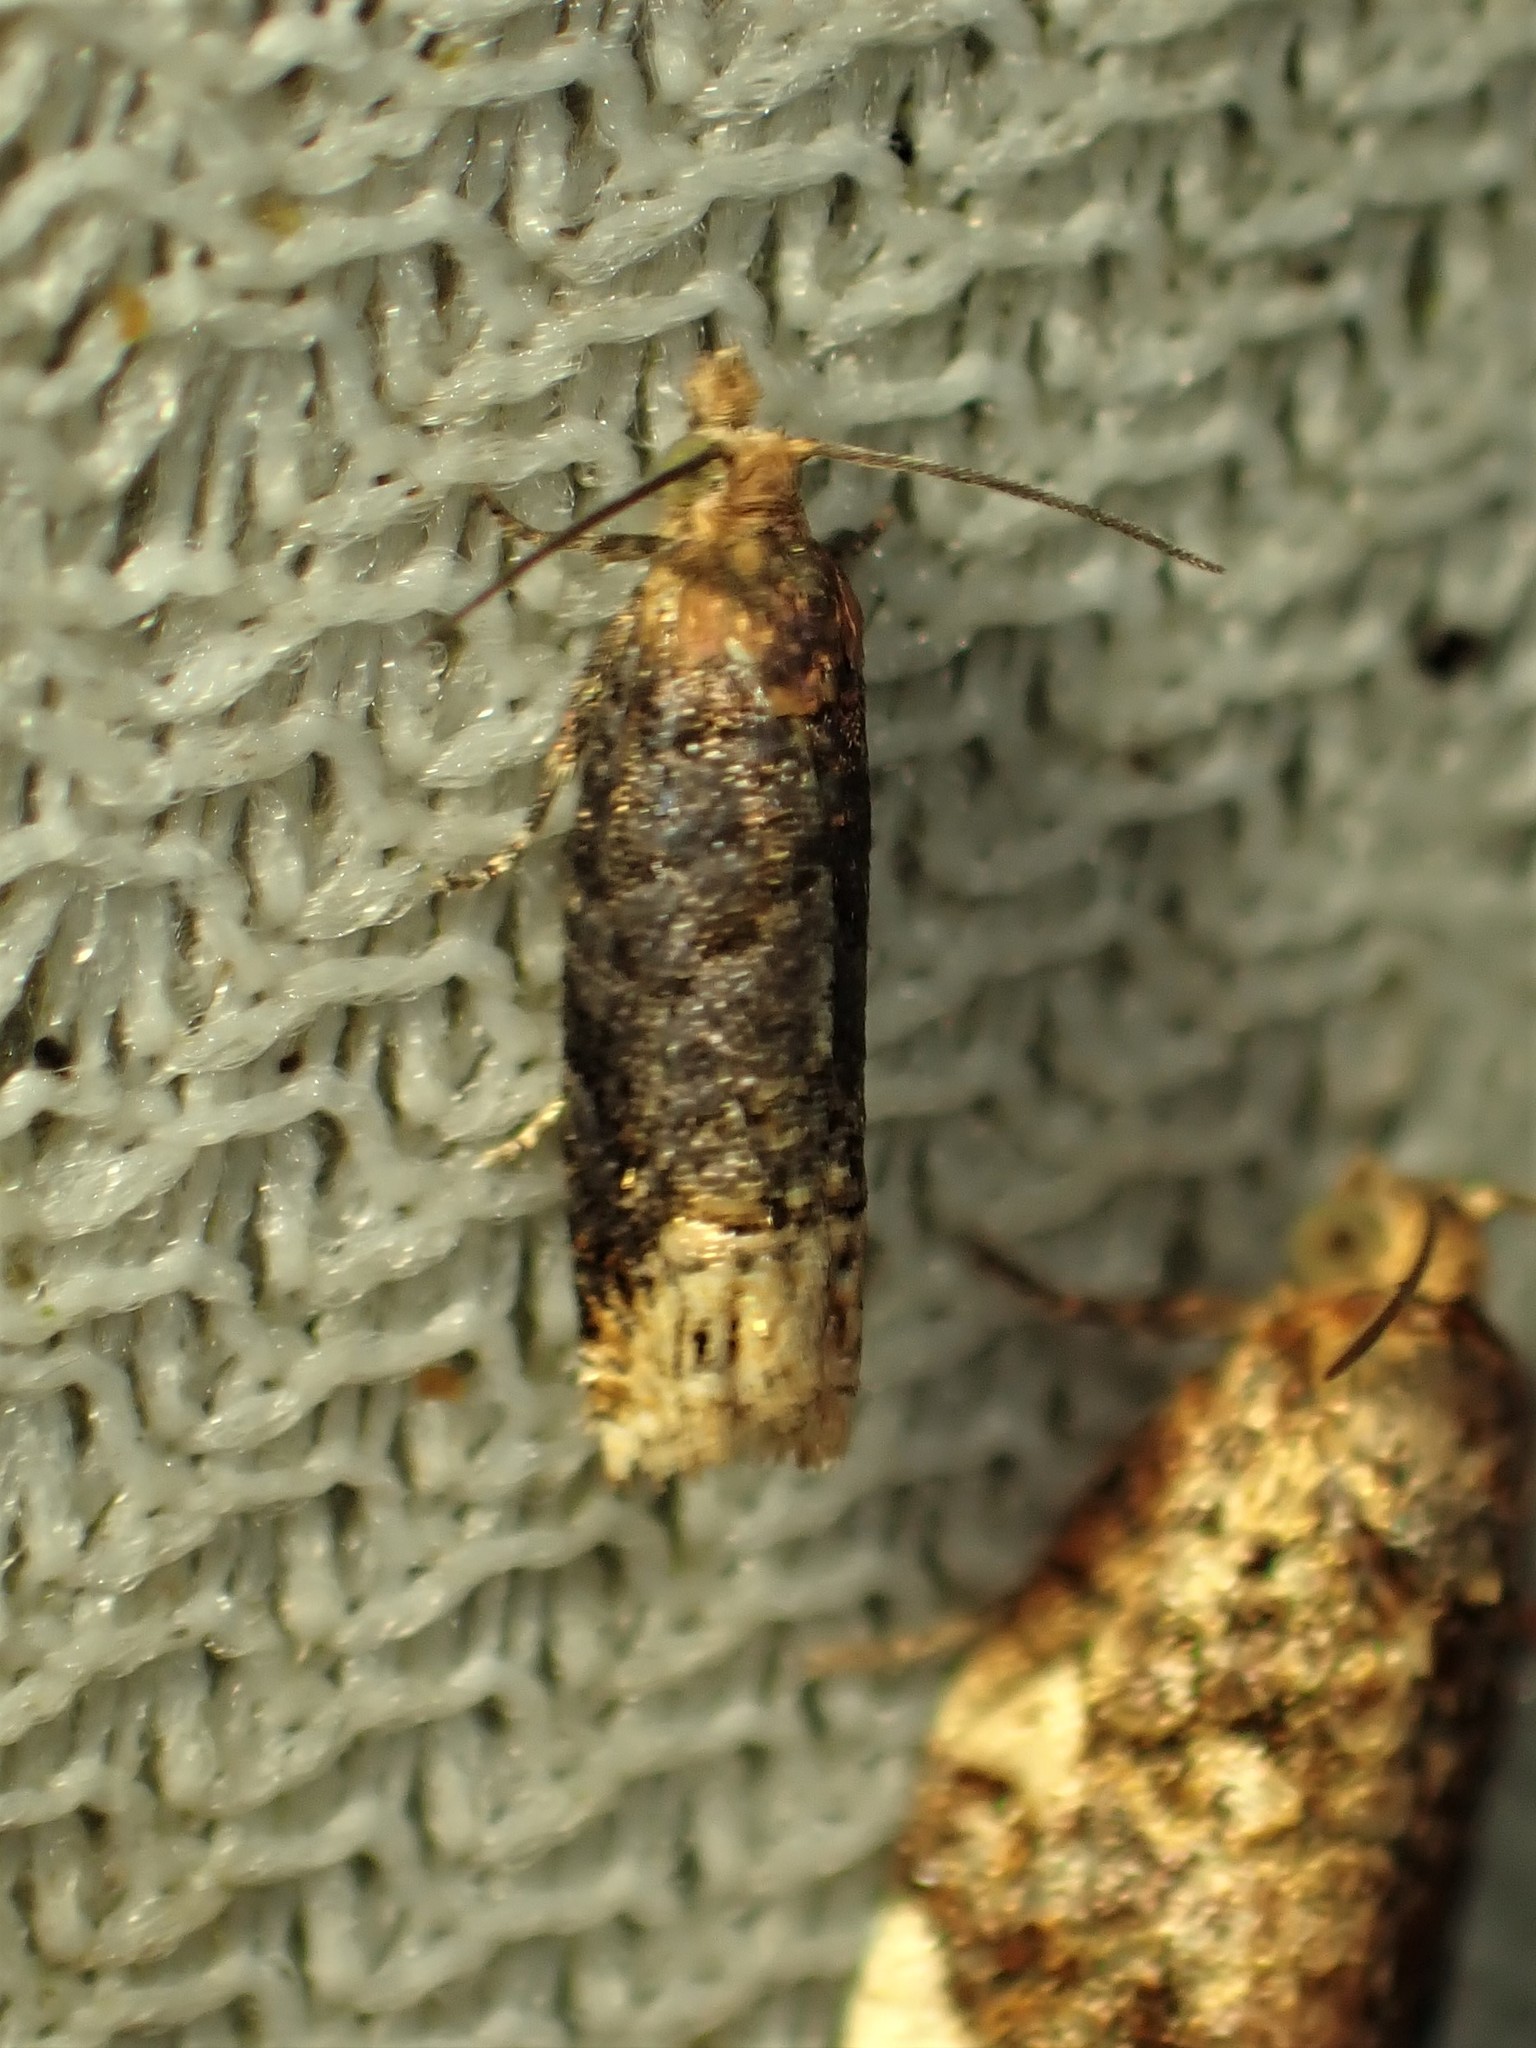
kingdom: Animalia
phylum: Arthropoda
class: Insecta
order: Lepidoptera
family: Tortricidae
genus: Eucosma
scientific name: Eucosma ochroterminana
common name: Buff-tipped eucosma moth
